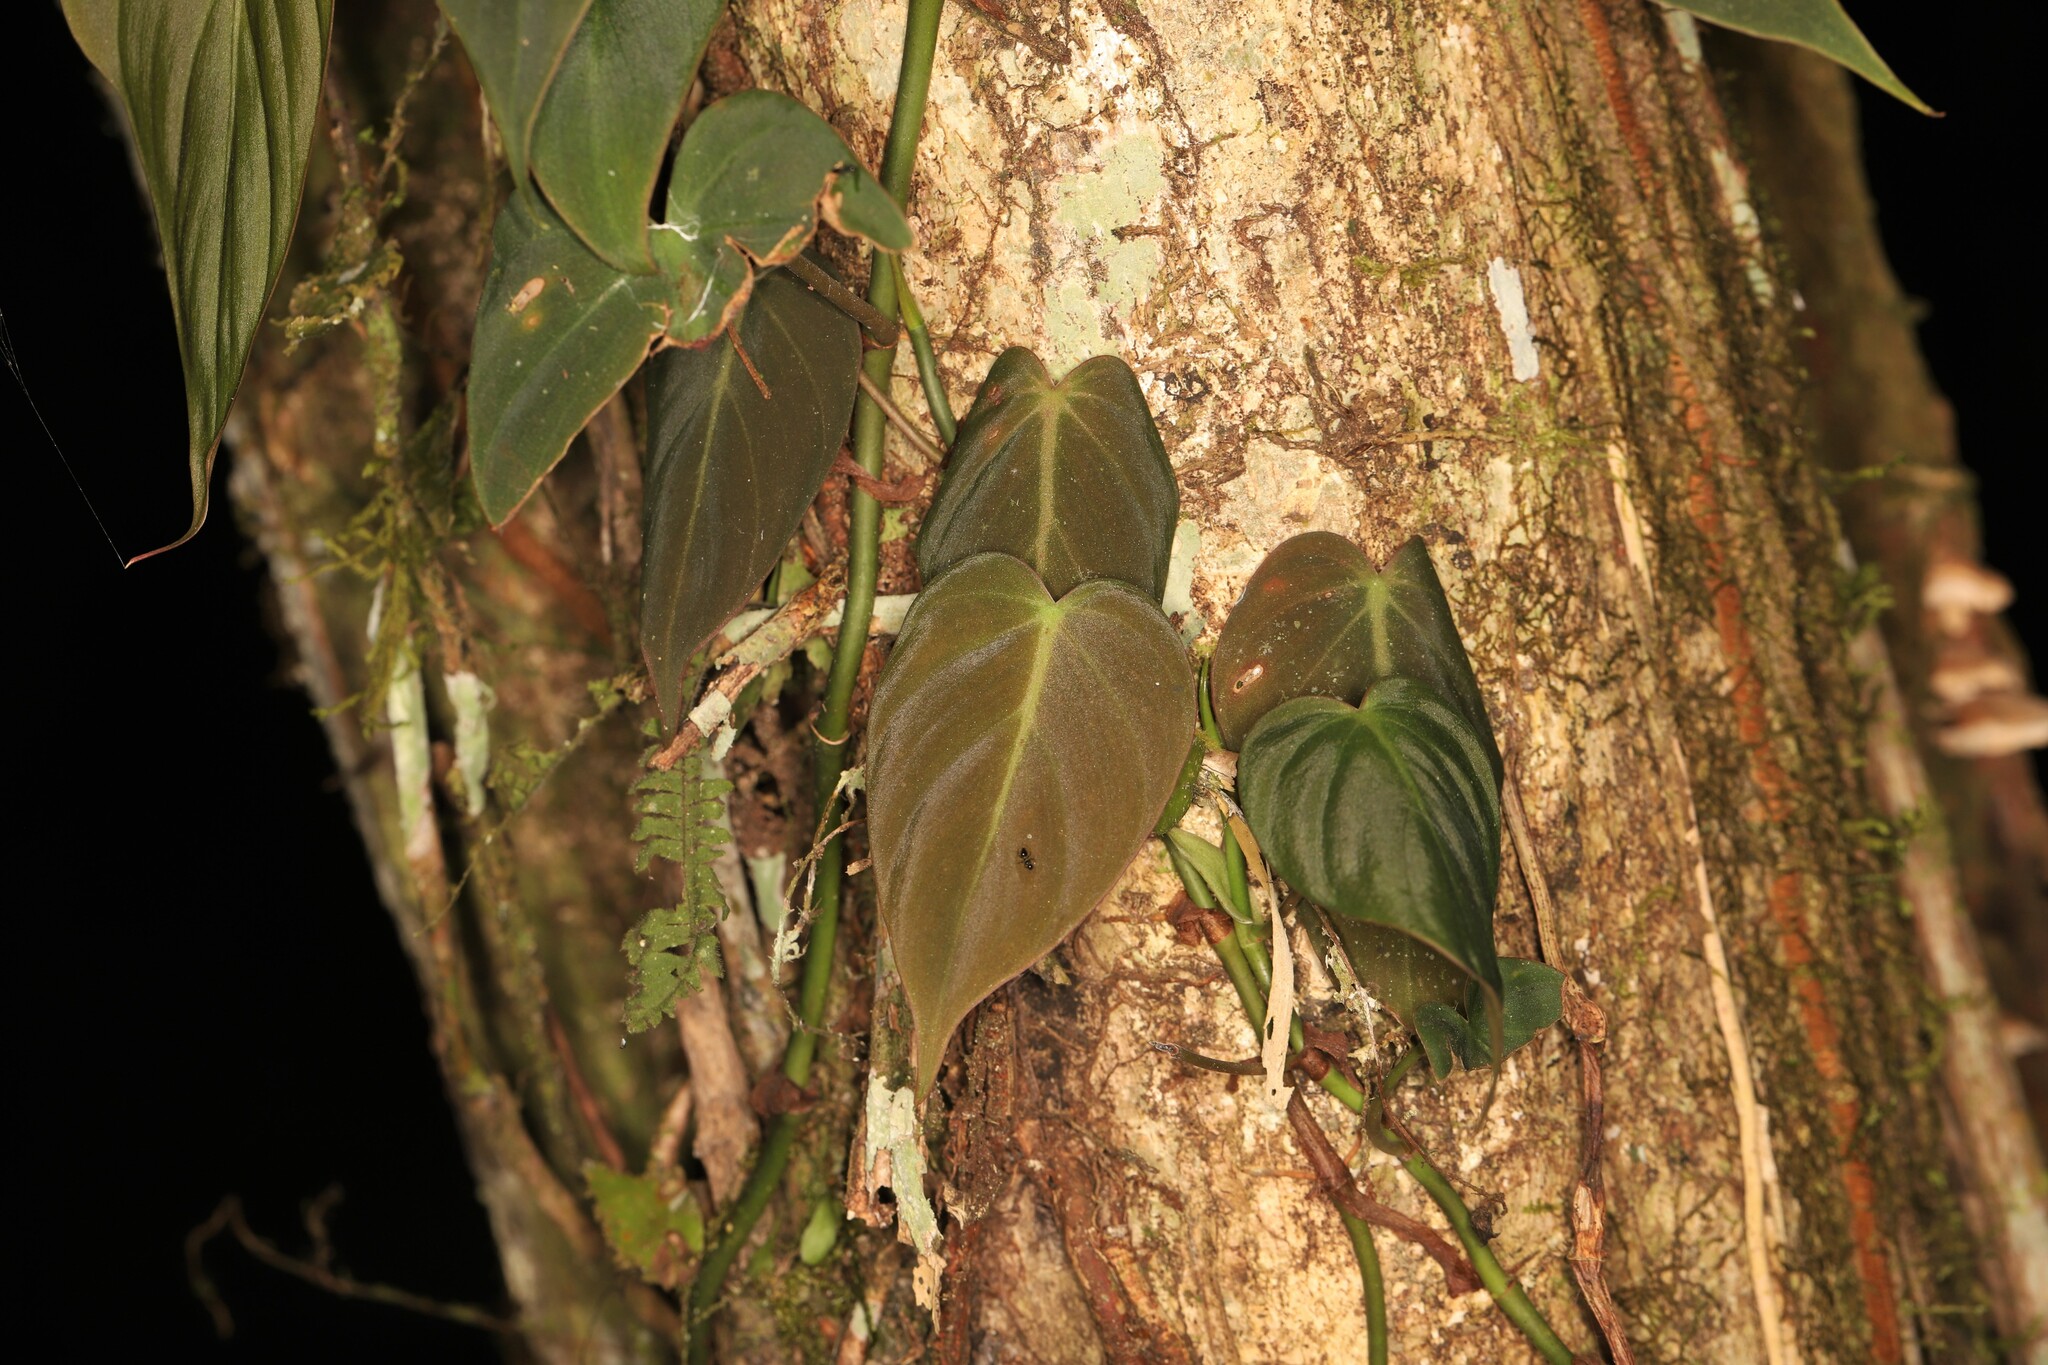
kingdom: Plantae
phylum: Tracheophyta
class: Liliopsida
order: Alismatales
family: Araceae
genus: Philodendron
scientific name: Philodendron hederaceum
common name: Vilevine
